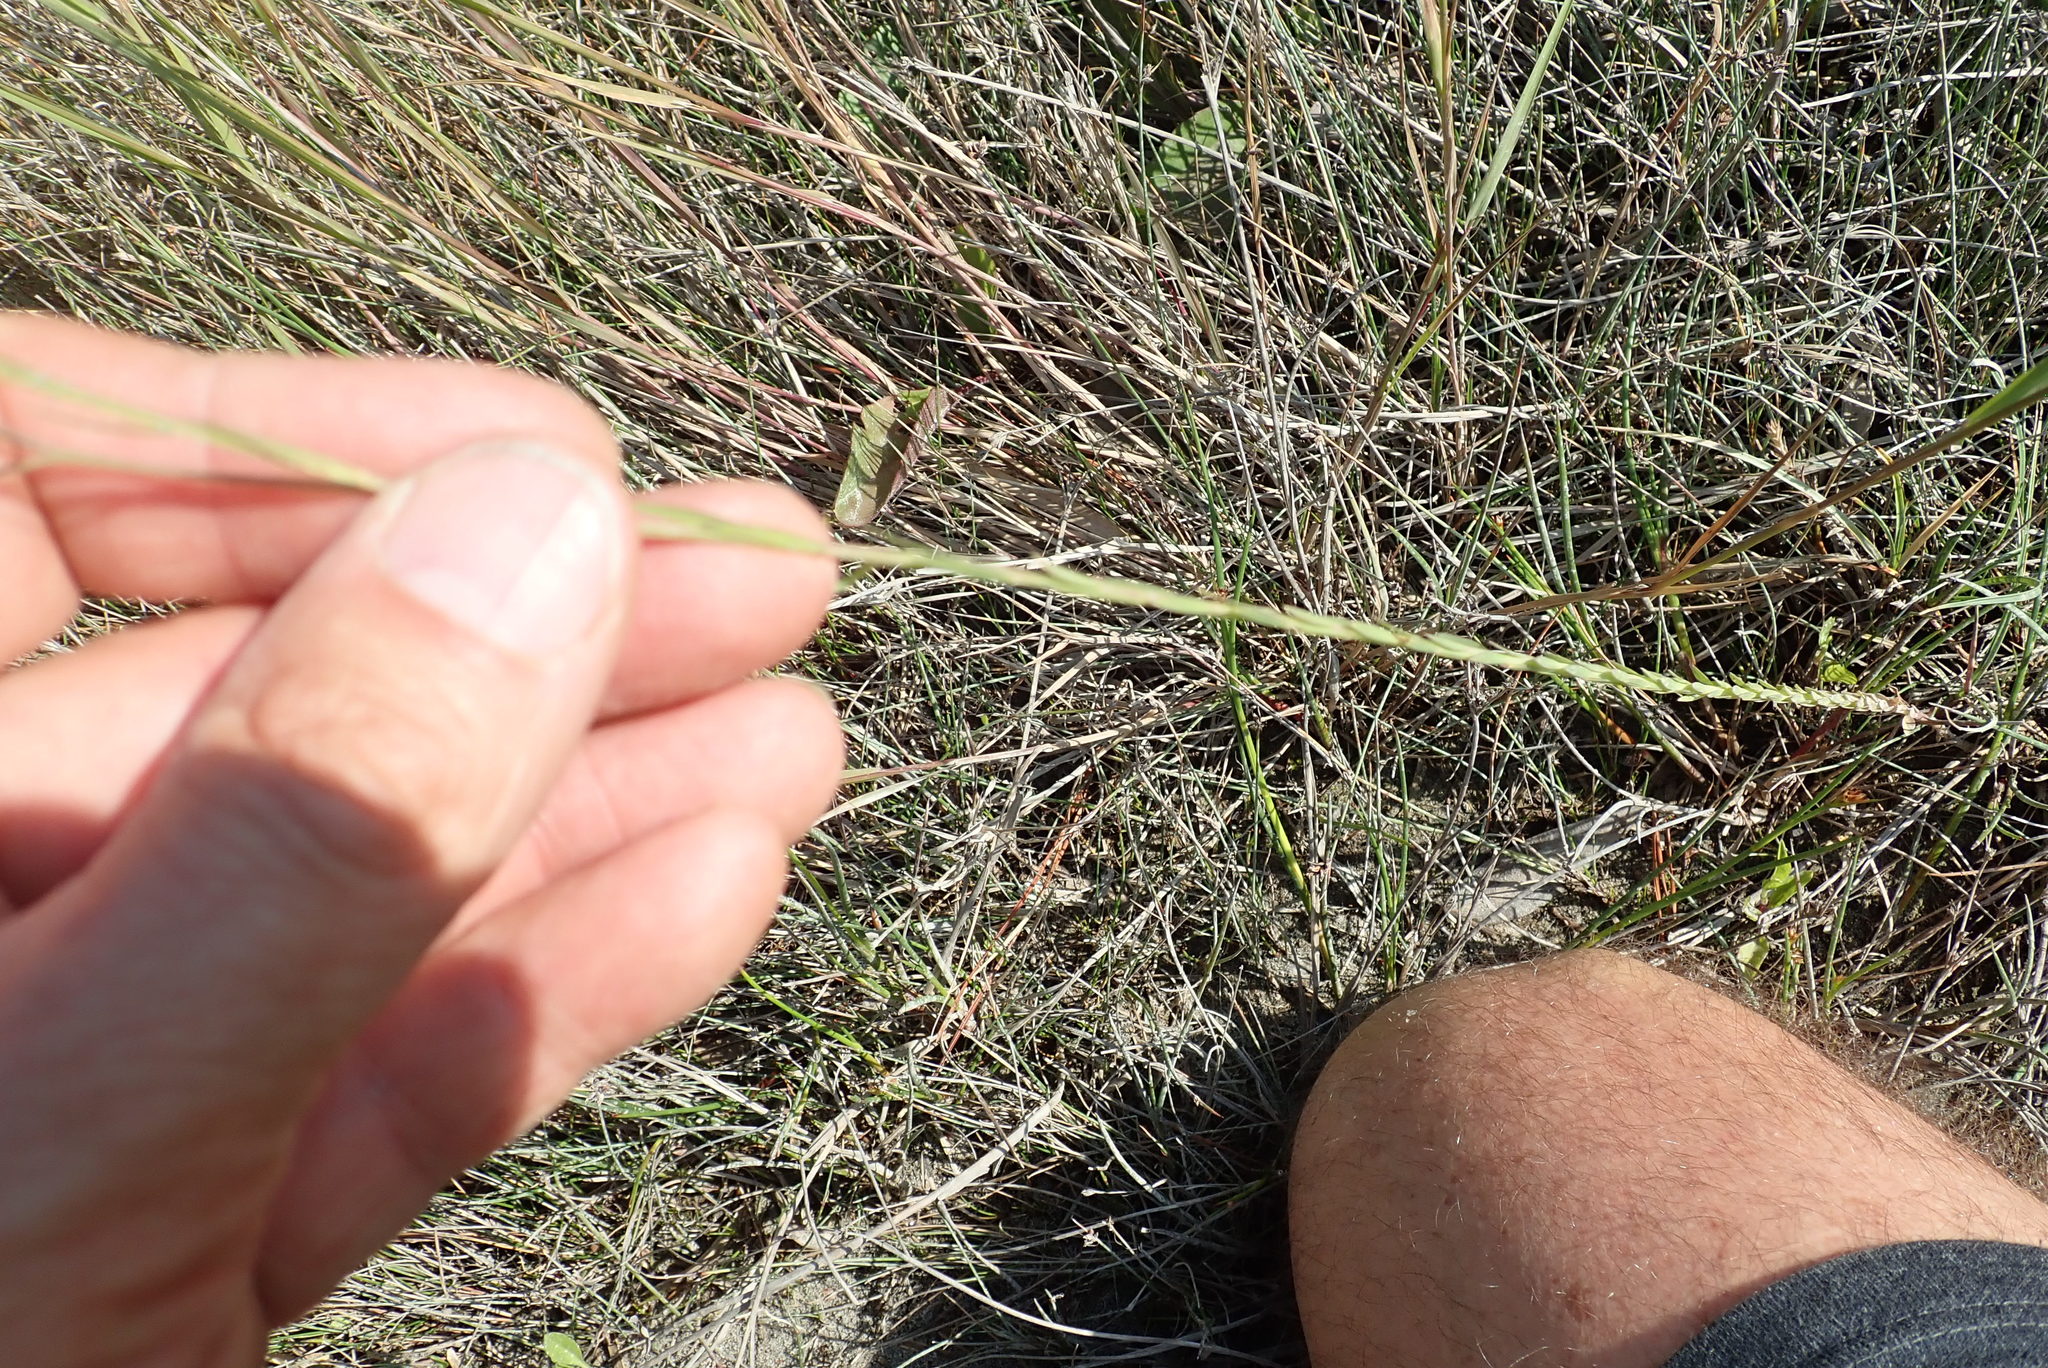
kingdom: Plantae
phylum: Tracheophyta
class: Magnoliopsida
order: Malpighiales
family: Linaceae
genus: Linum
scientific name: Linum bienne
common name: Pale flax
